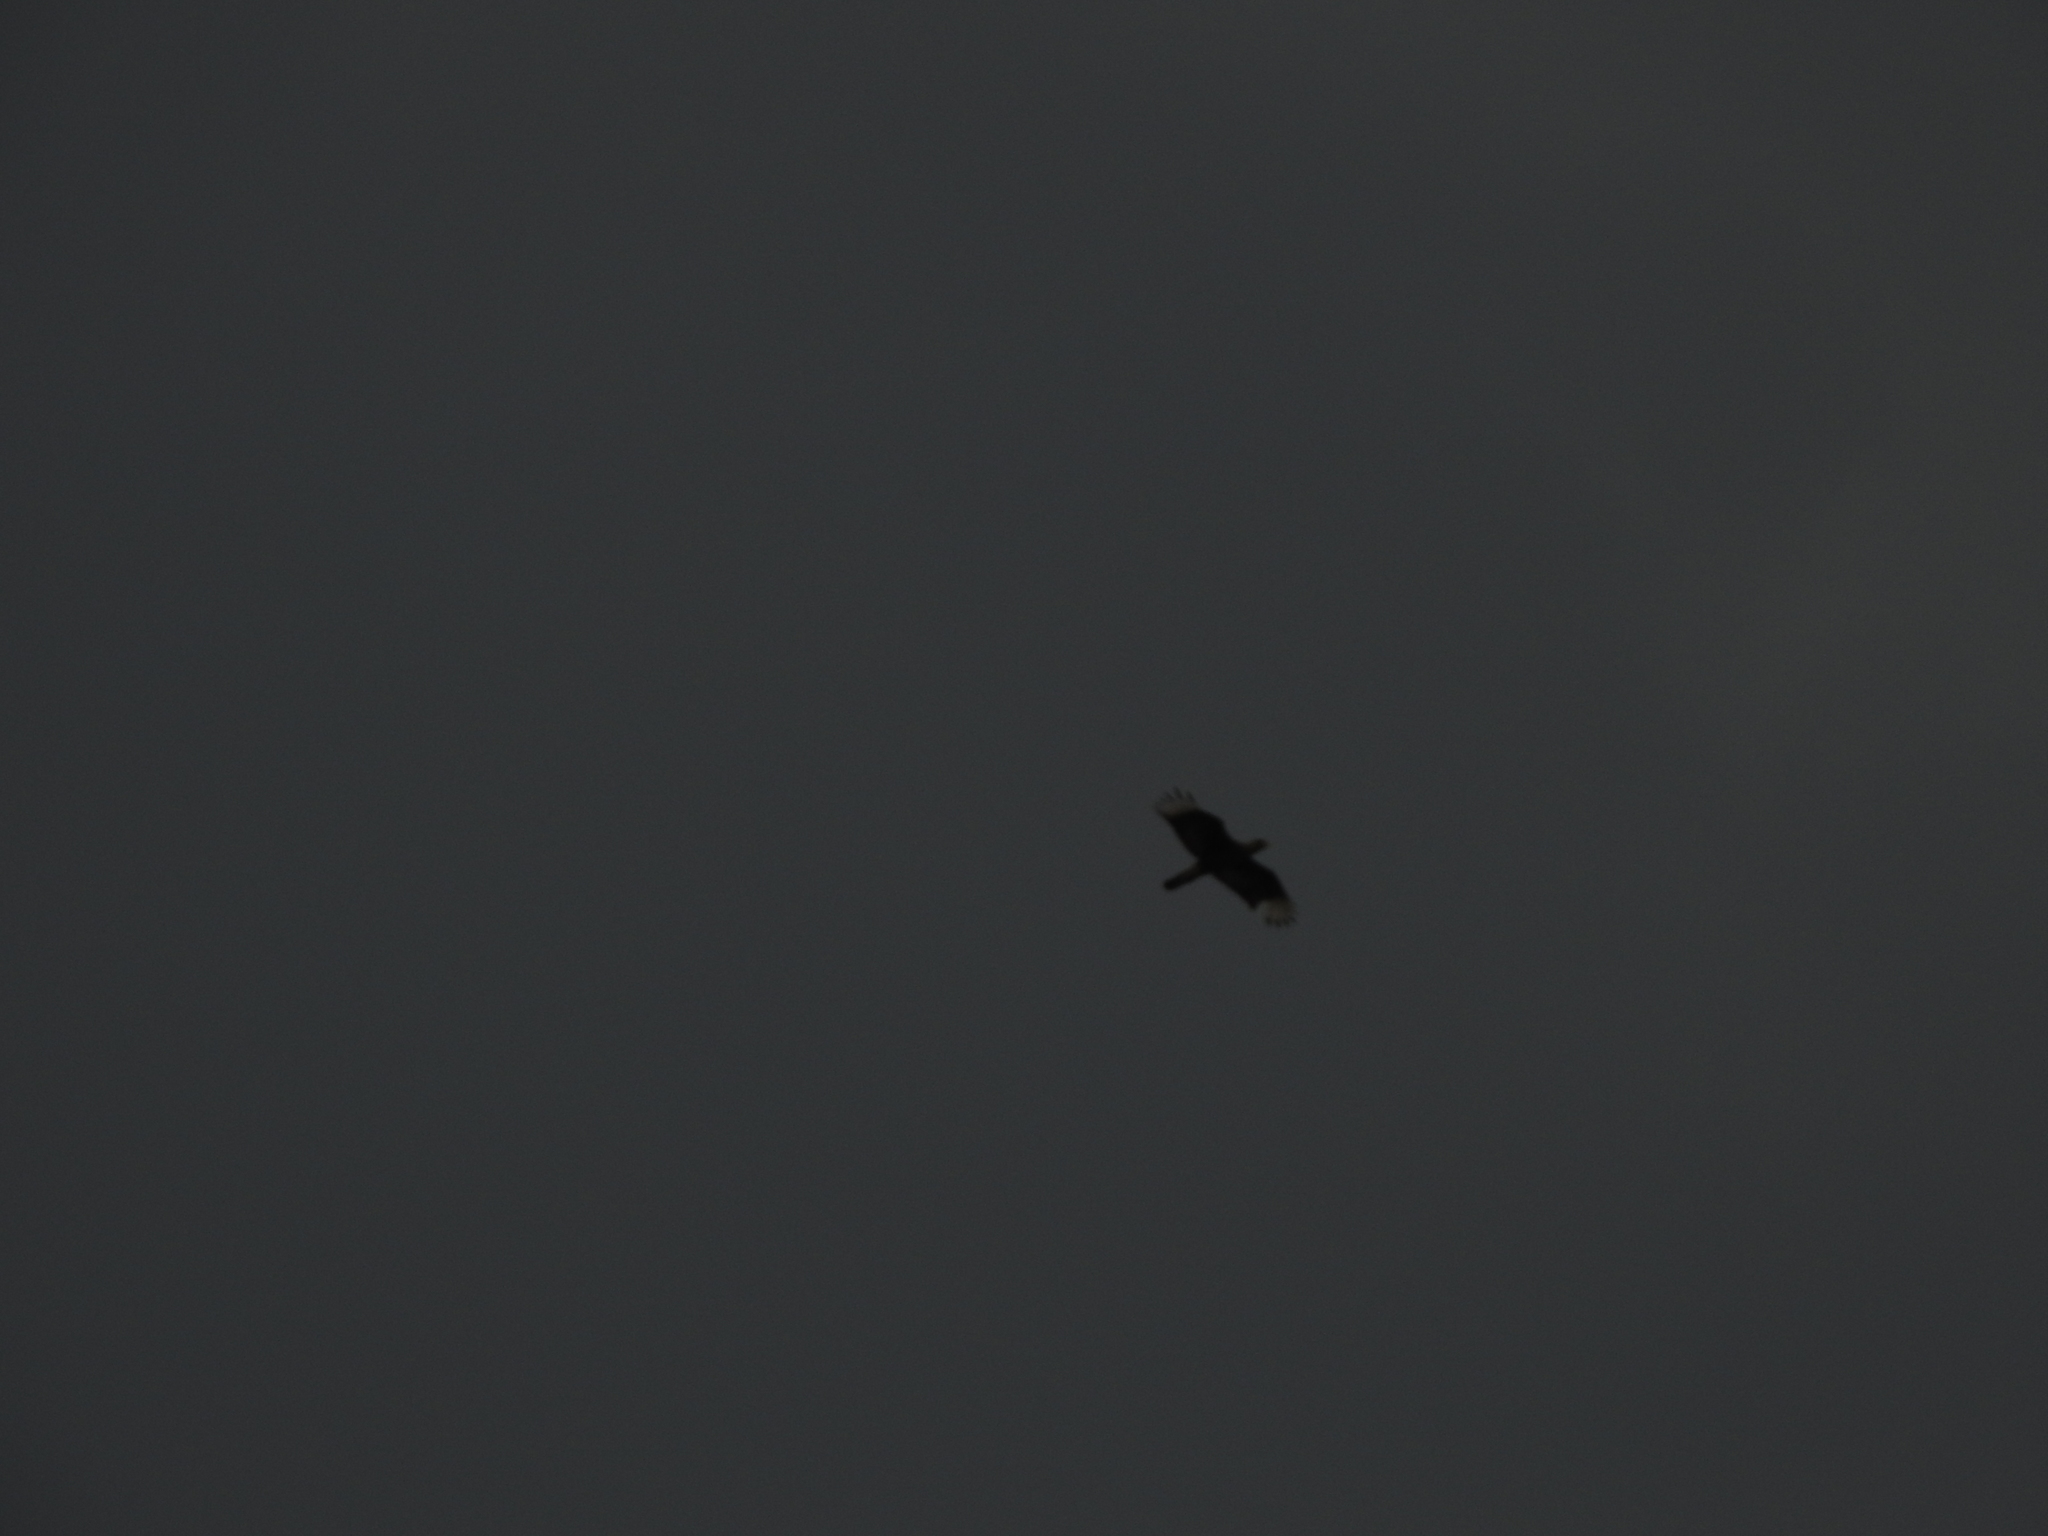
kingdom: Animalia
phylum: Chordata
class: Aves
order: Falconiformes
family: Falconidae
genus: Caracara
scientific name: Caracara plancus
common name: Southern caracara
